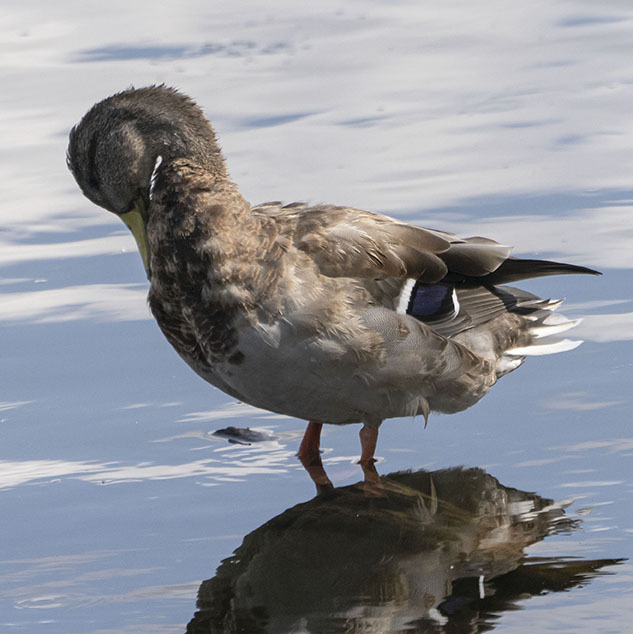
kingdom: Animalia
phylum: Chordata
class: Aves
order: Anseriformes
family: Anatidae
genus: Anas
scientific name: Anas platyrhynchos
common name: Mallard
